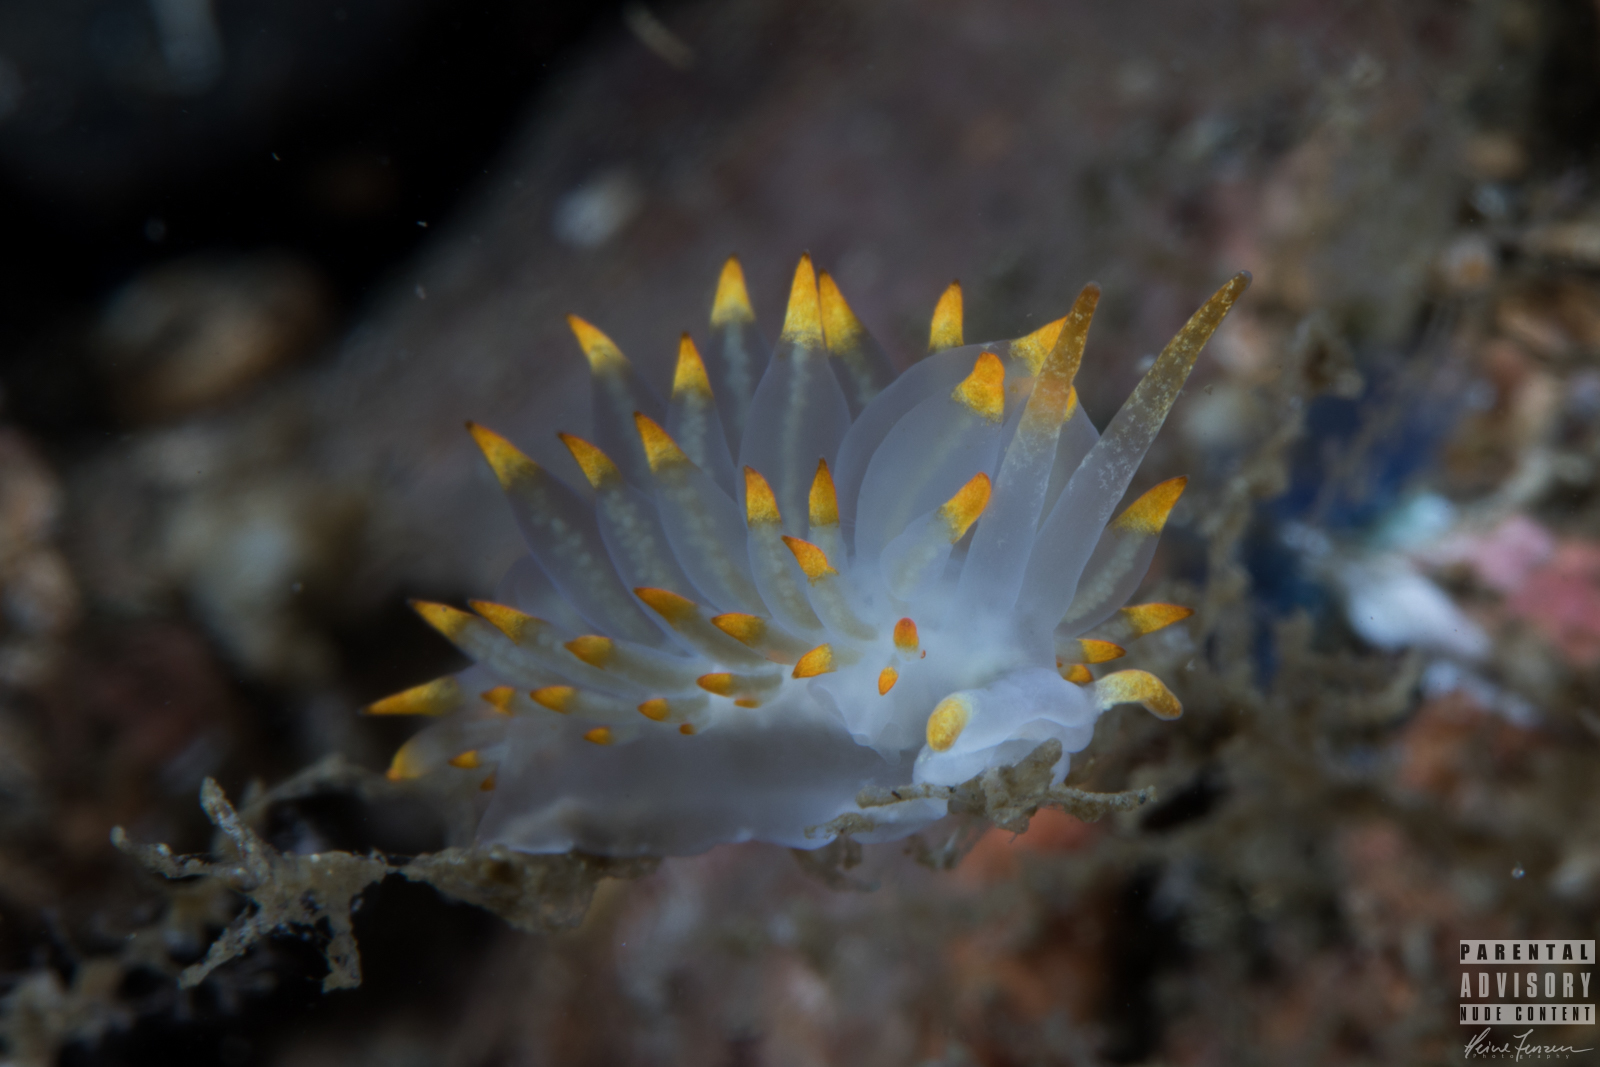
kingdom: Animalia
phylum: Mollusca
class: Gastropoda
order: Nudibranchia
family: Eubranchidae
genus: Amphorina
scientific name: Amphorina farrani
